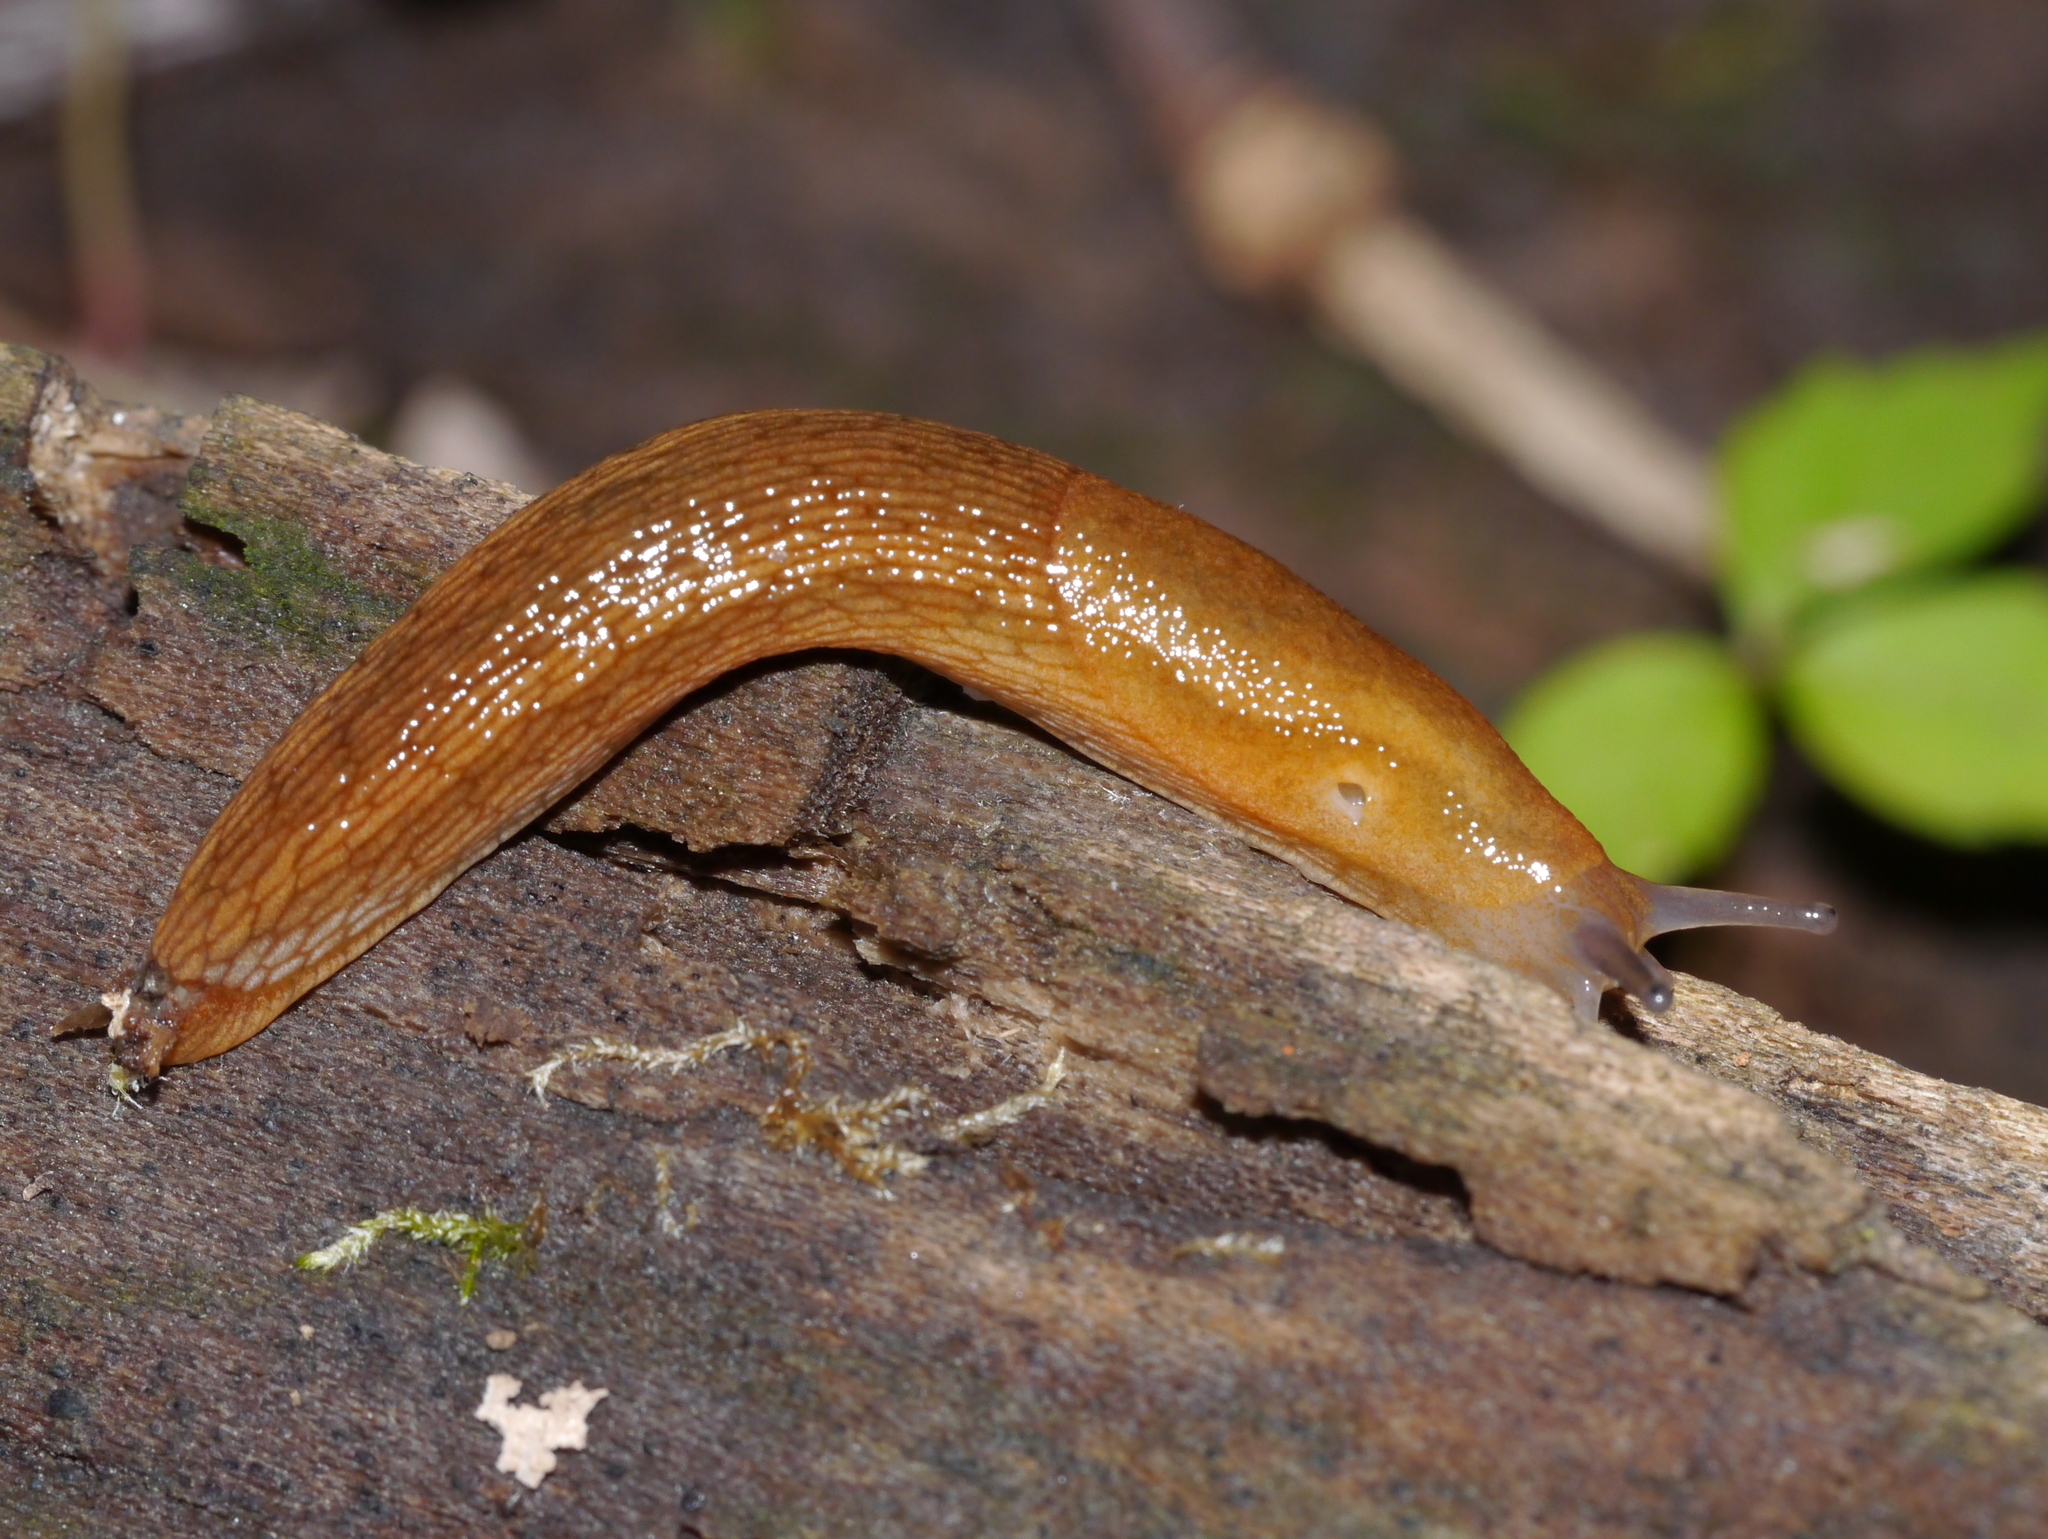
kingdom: Animalia
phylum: Mollusca
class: Gastropoda
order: Stylommatophora
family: Arionidae
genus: Arion
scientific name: Arion subfuscus
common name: Dusky arion
